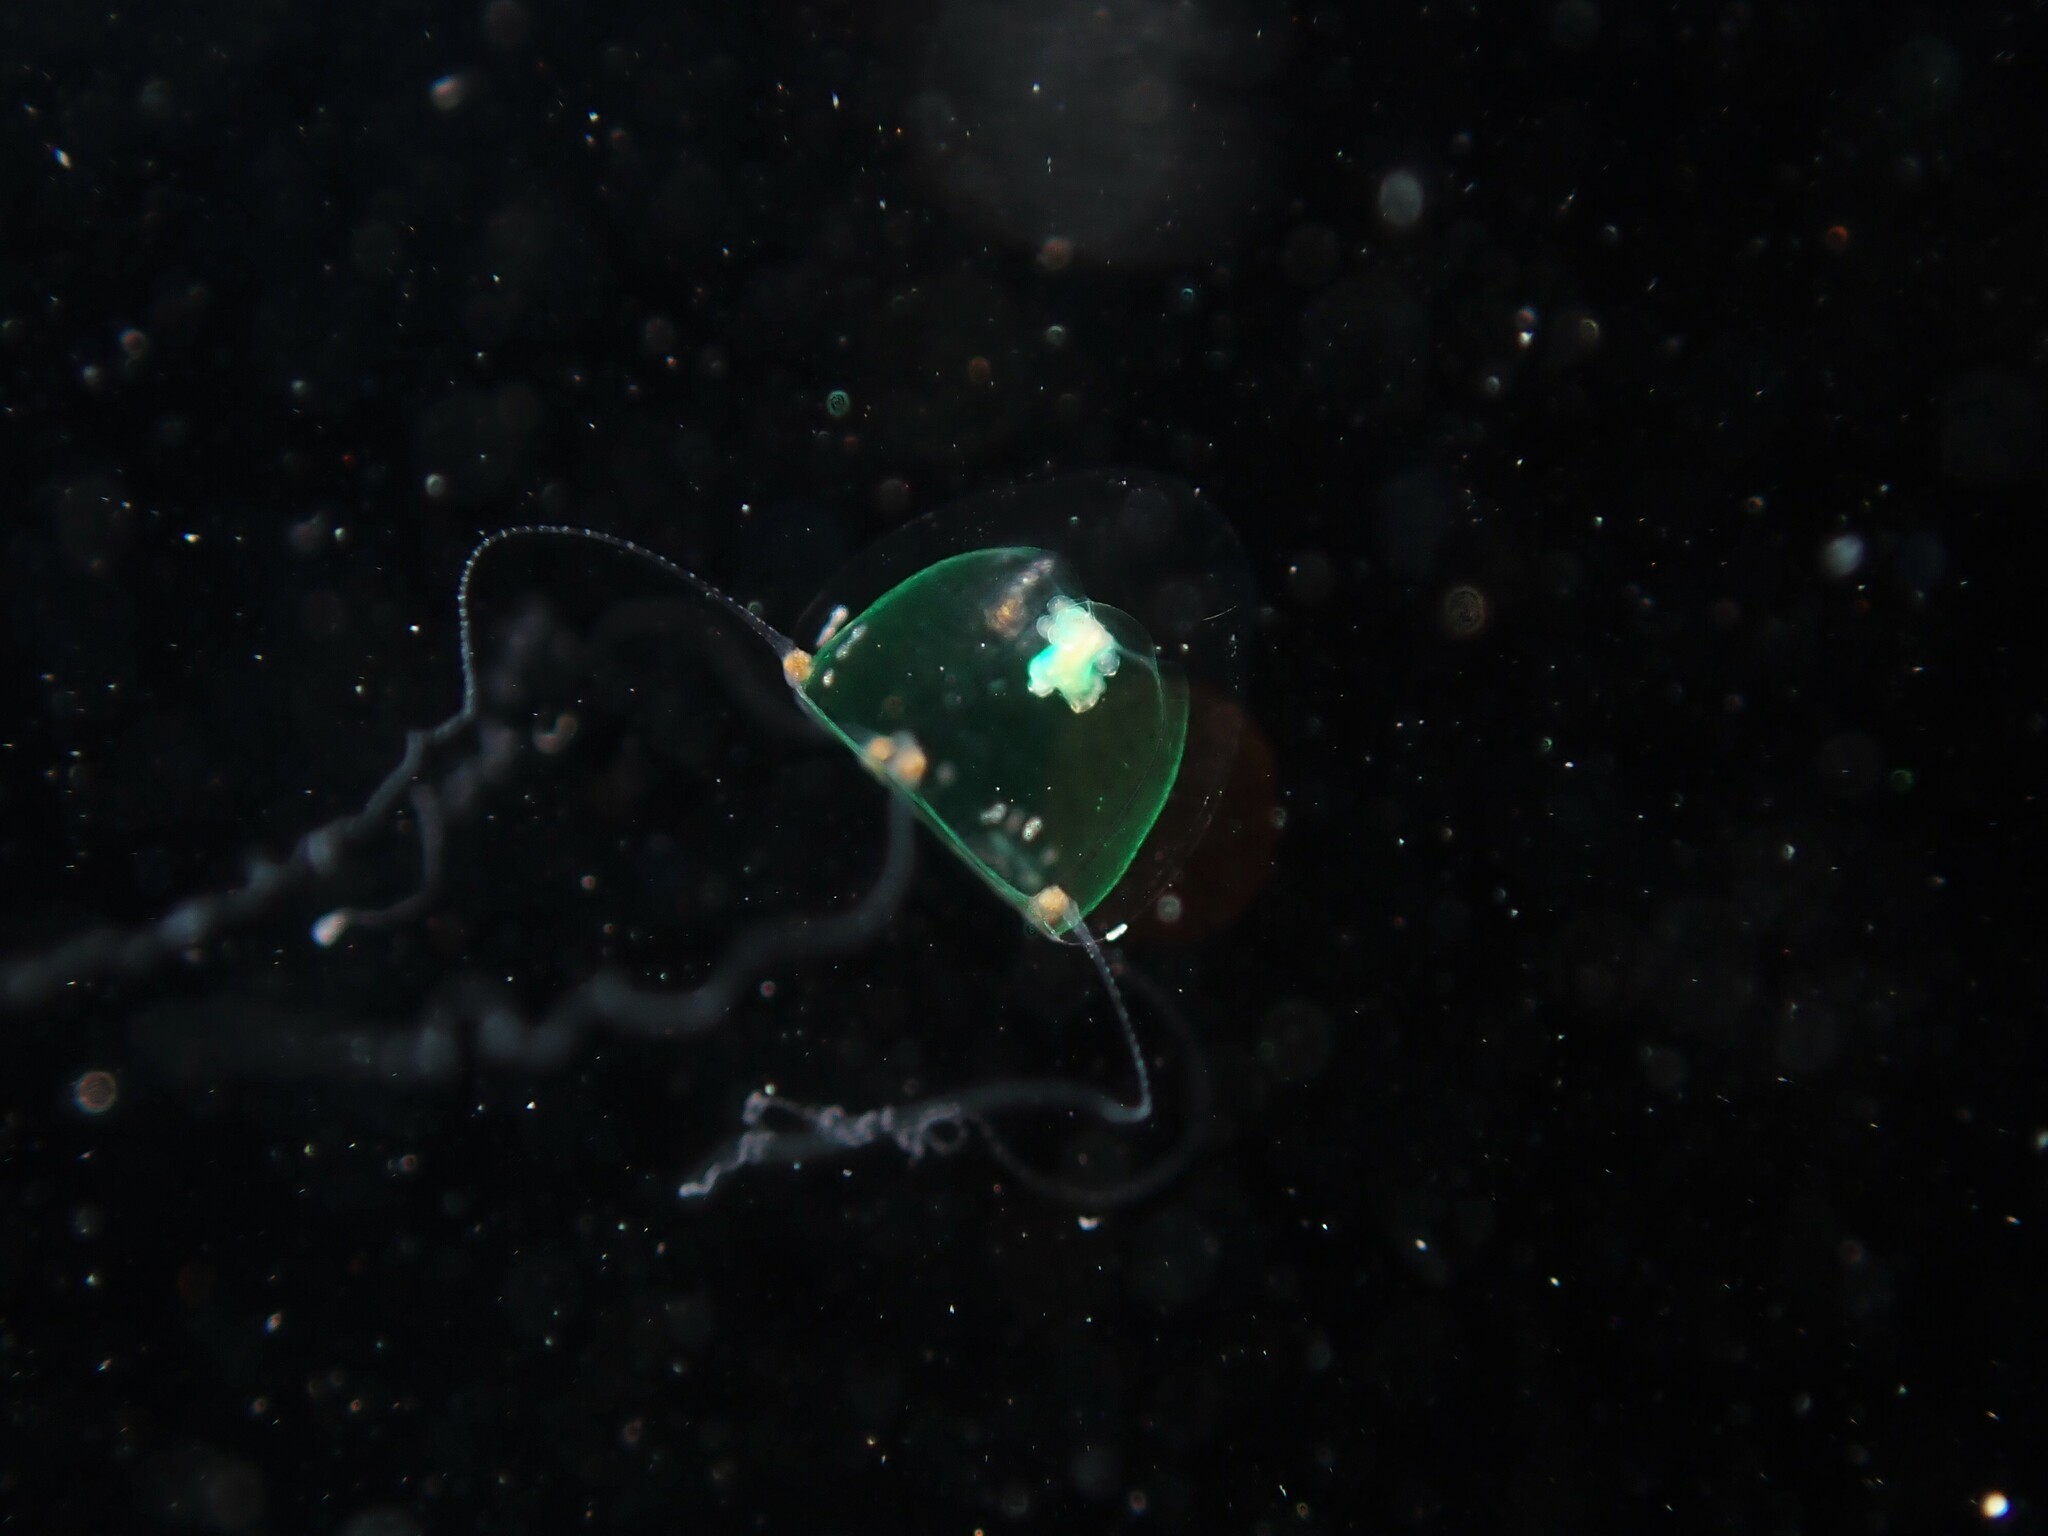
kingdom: Animalia
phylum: Cnidaria
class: Hydrozoa
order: Anthoathecata
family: Rathkeidae
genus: Podocorynoides
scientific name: Podocorynoides minima
